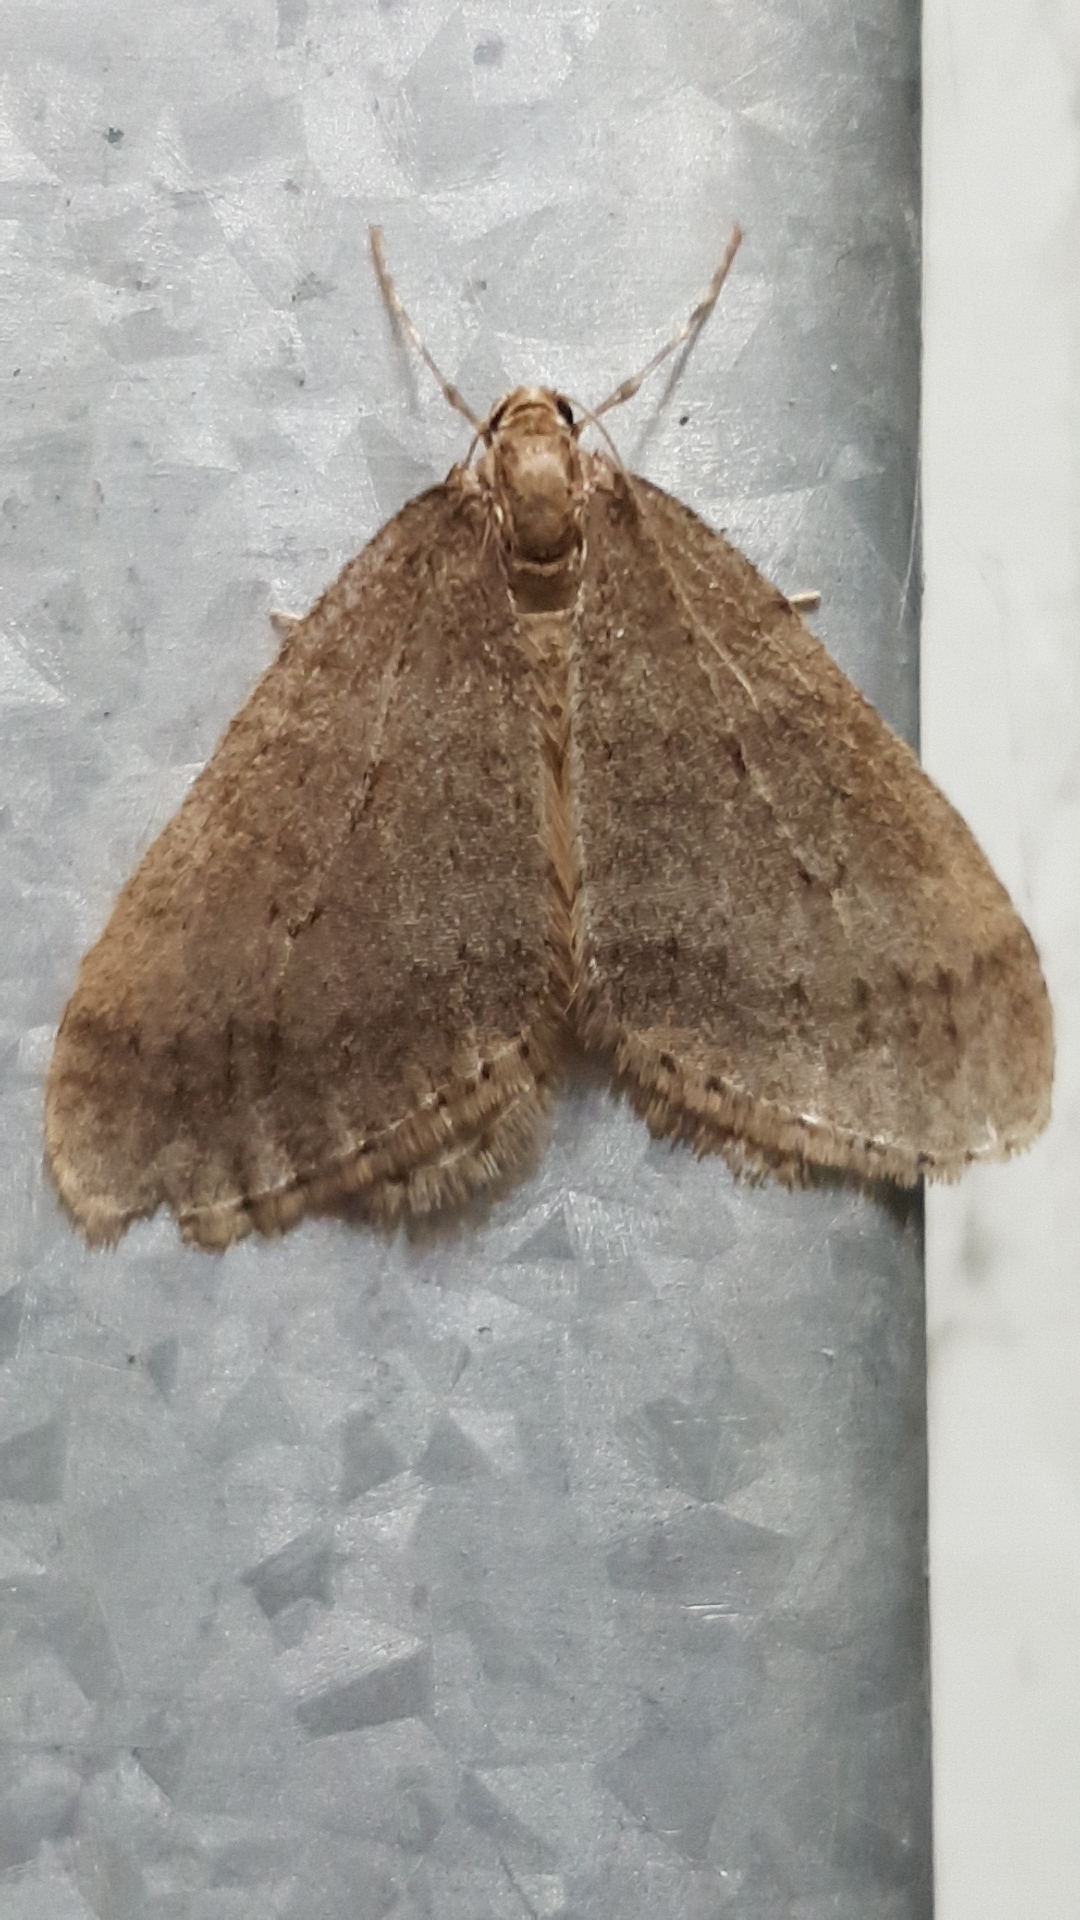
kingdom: Animalia
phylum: Arthropoda
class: Insecta
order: Lepidoptera
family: Geometridae
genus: Operophtera
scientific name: Operophtera brumata
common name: Winter moth
